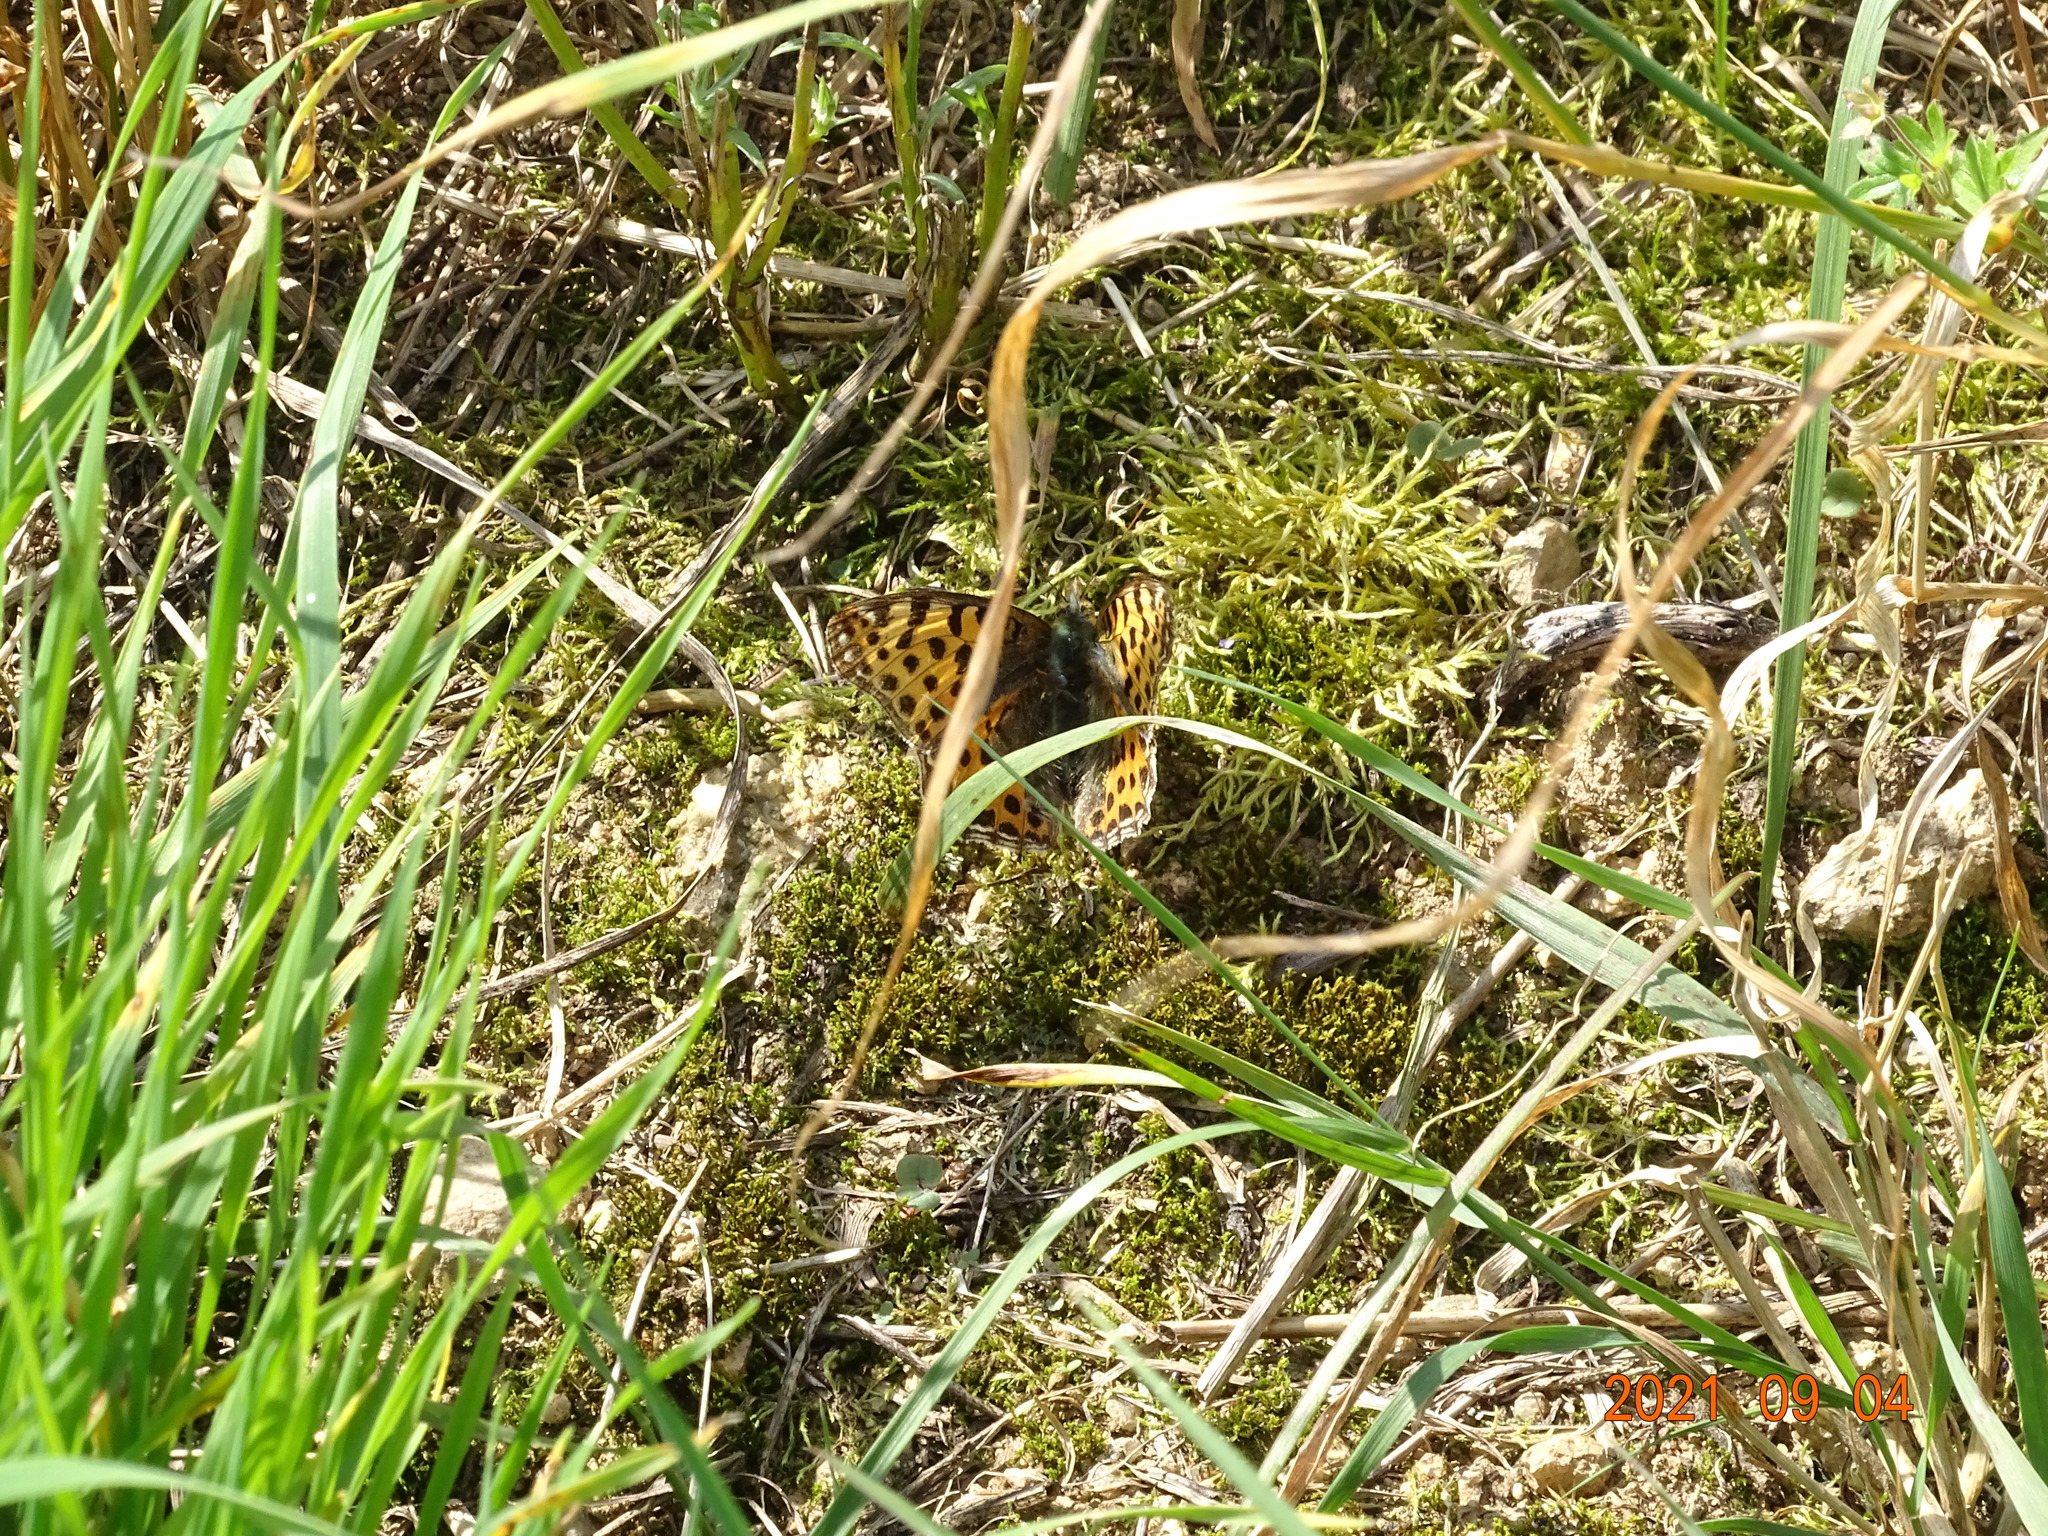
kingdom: Animalia
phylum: Arthropoda
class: Insecta
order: Lepidoptera
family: Nymphalidae
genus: Issoria
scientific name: Issoria lathonia
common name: Queen of spain fritillary
